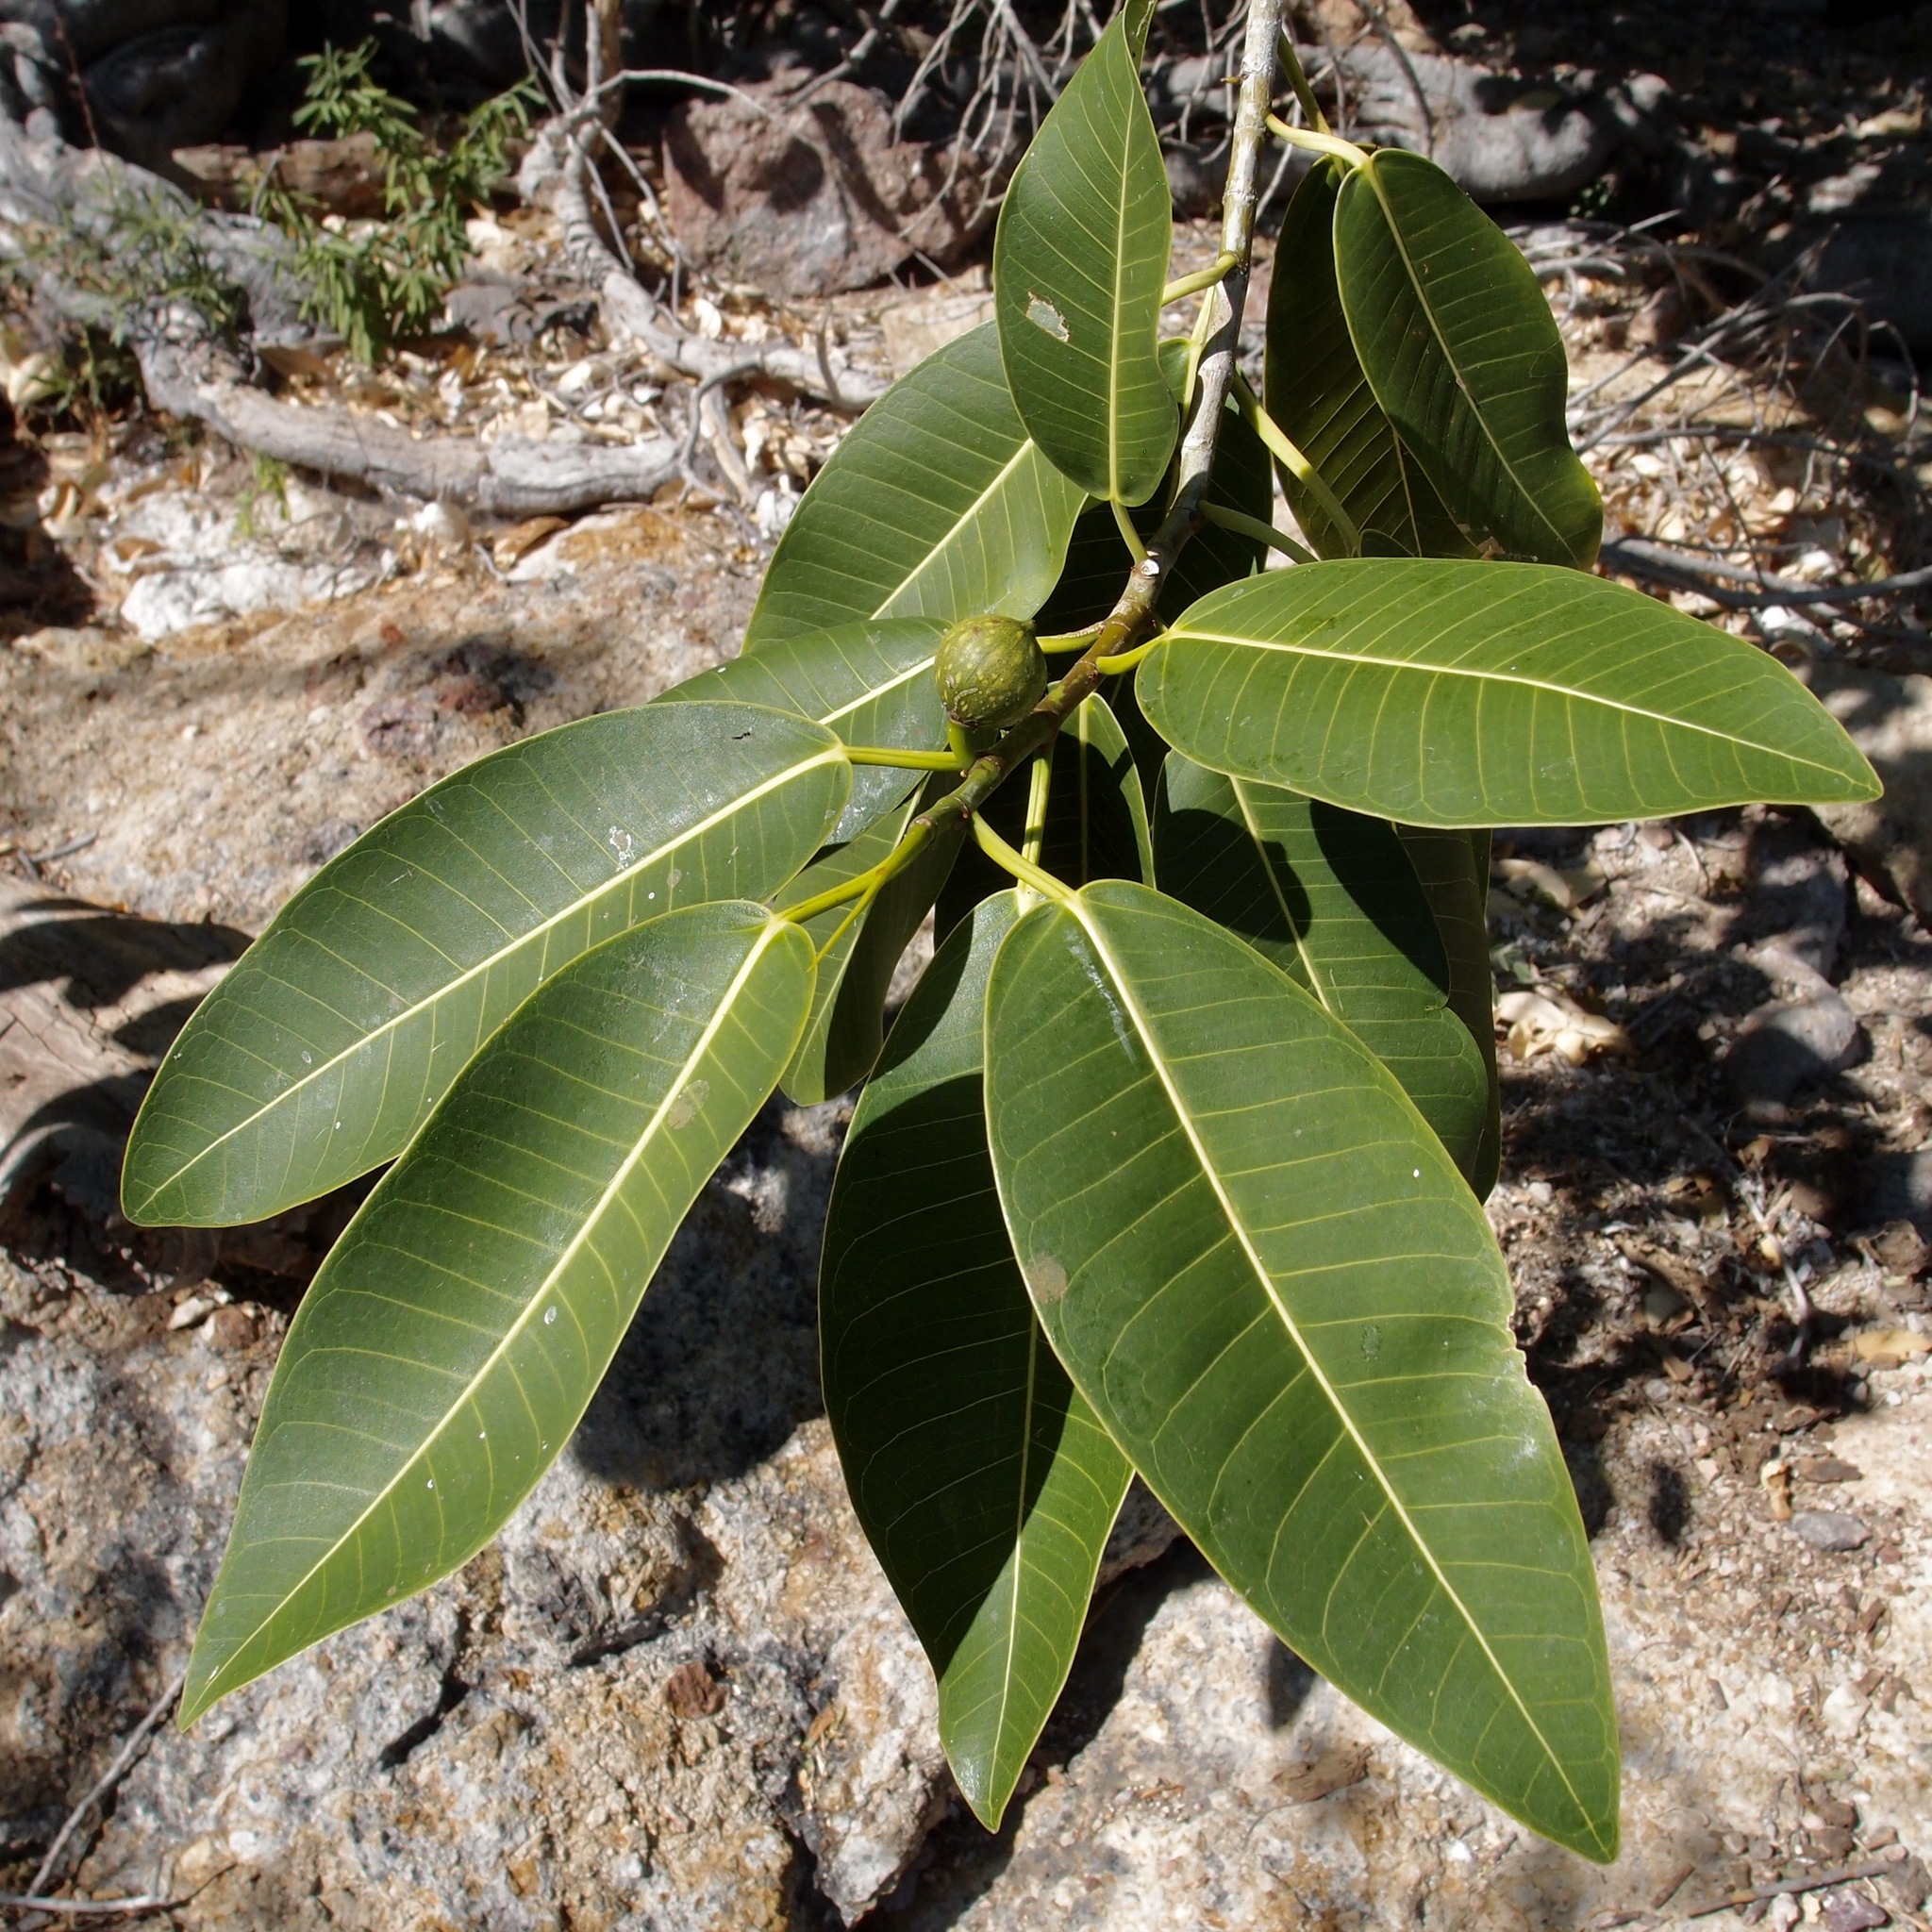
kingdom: Plantae
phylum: Tracheophyta
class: Magnoliopsida
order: Rosales
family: Moraceae
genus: Ficus
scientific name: Ficus insipida
